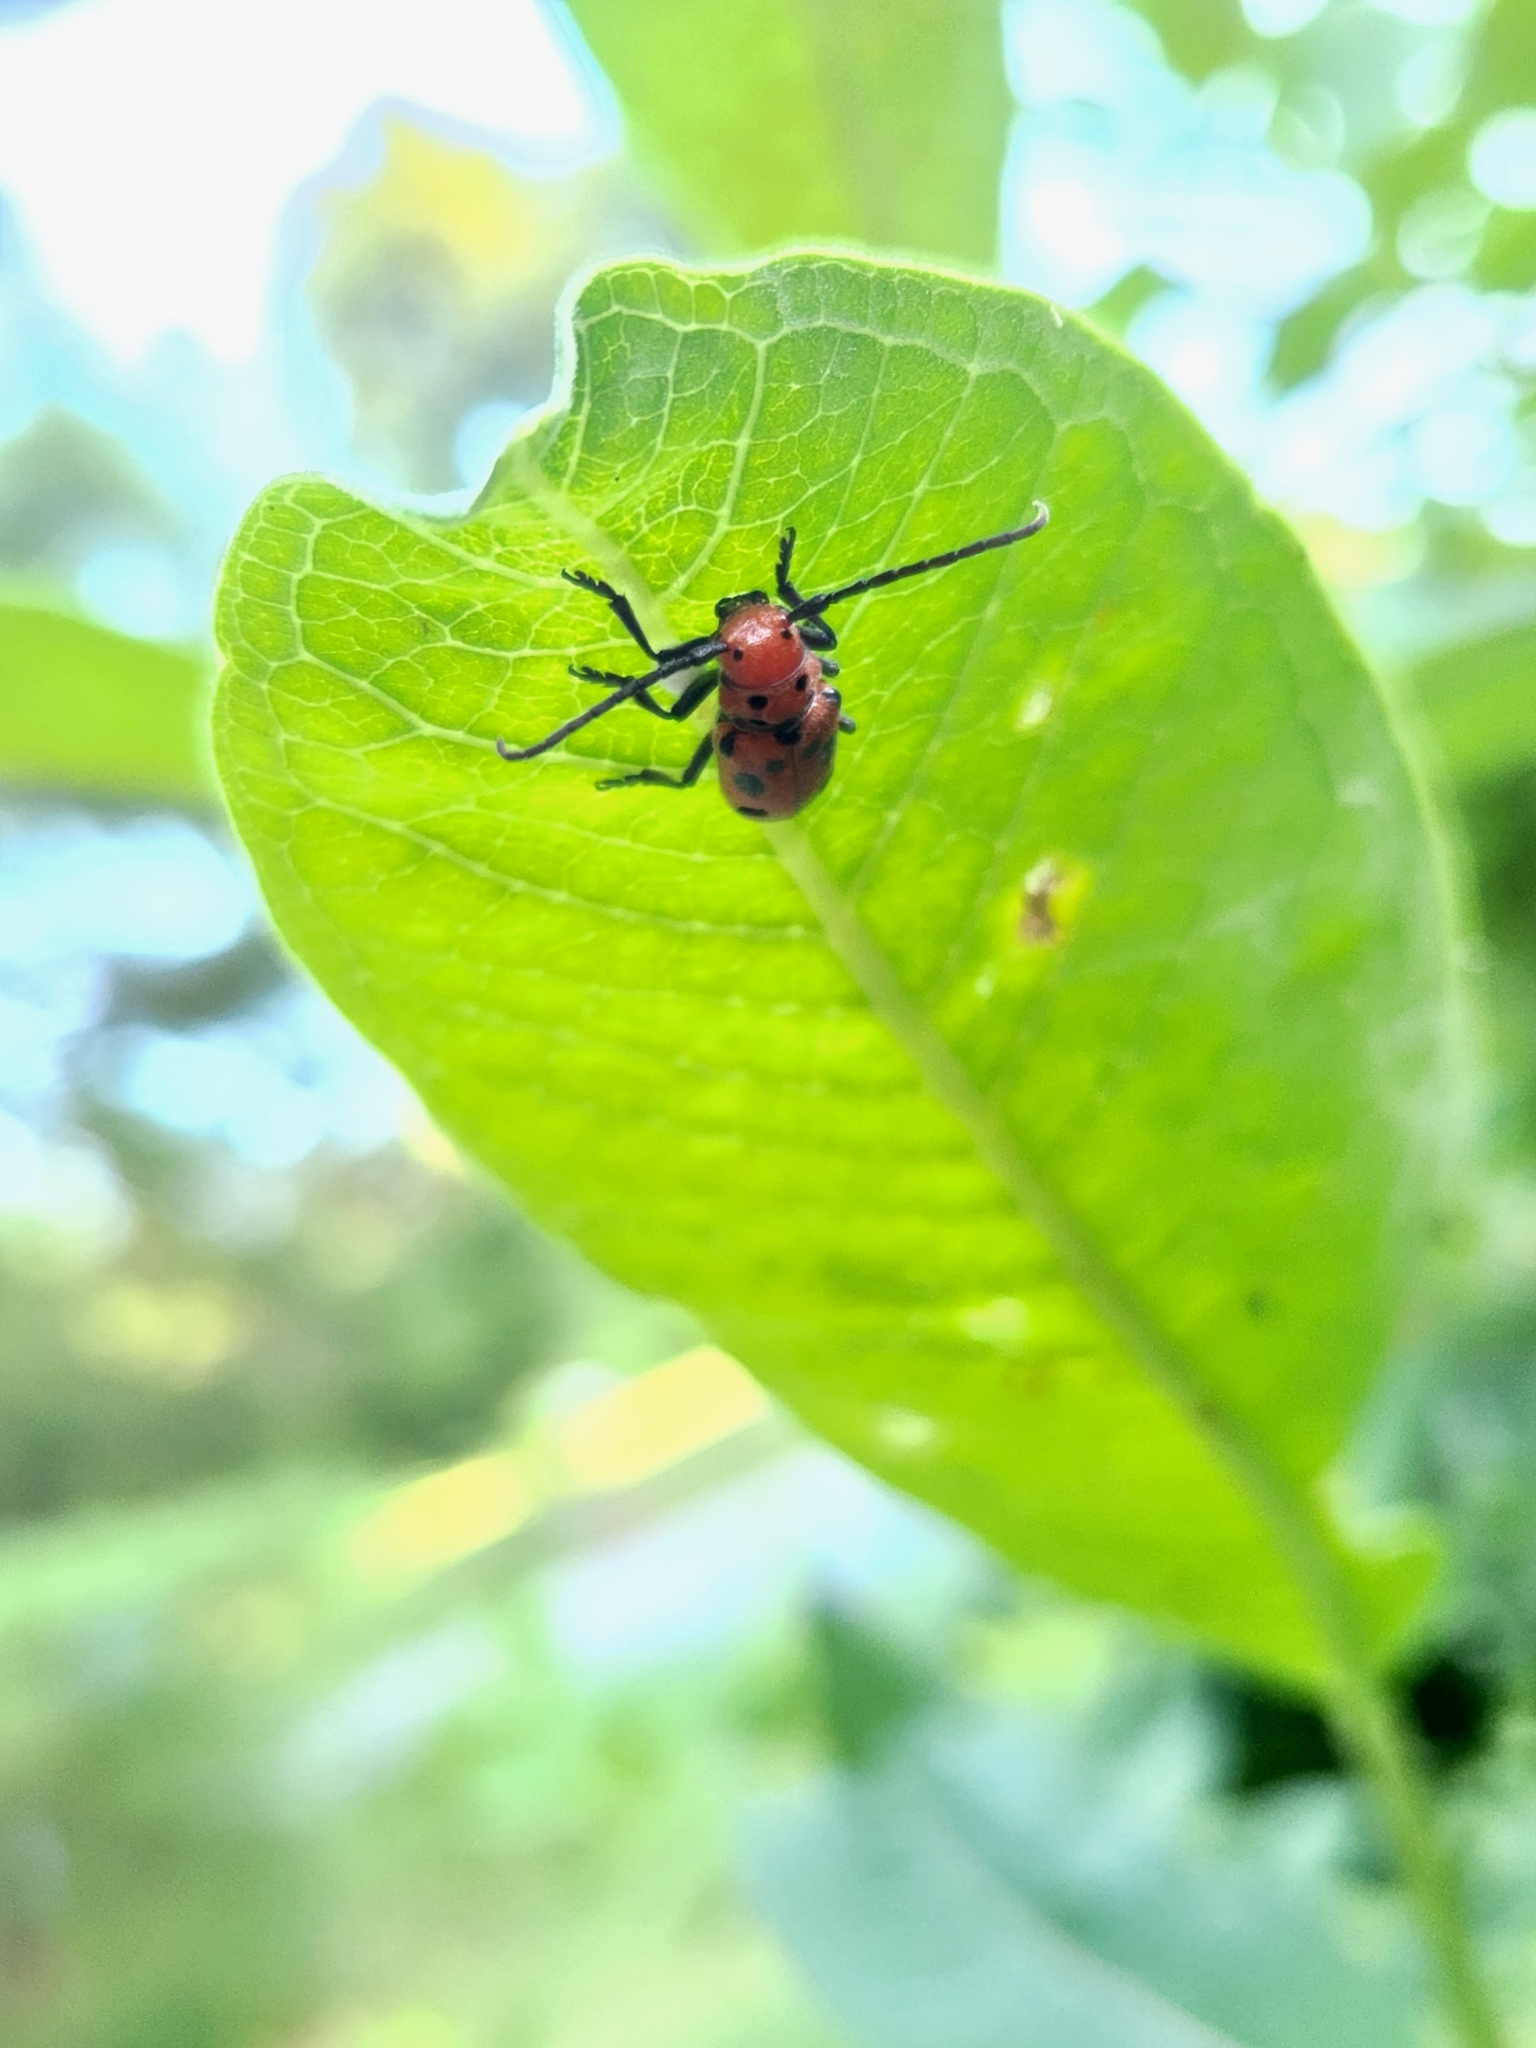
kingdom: Animalia
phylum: Arthropoda
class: Insecta
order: Coleoptera
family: Cerambycidae
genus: Tetraopes
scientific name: Tetraopes tetrophthalmus
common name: Red milkweed beetle
